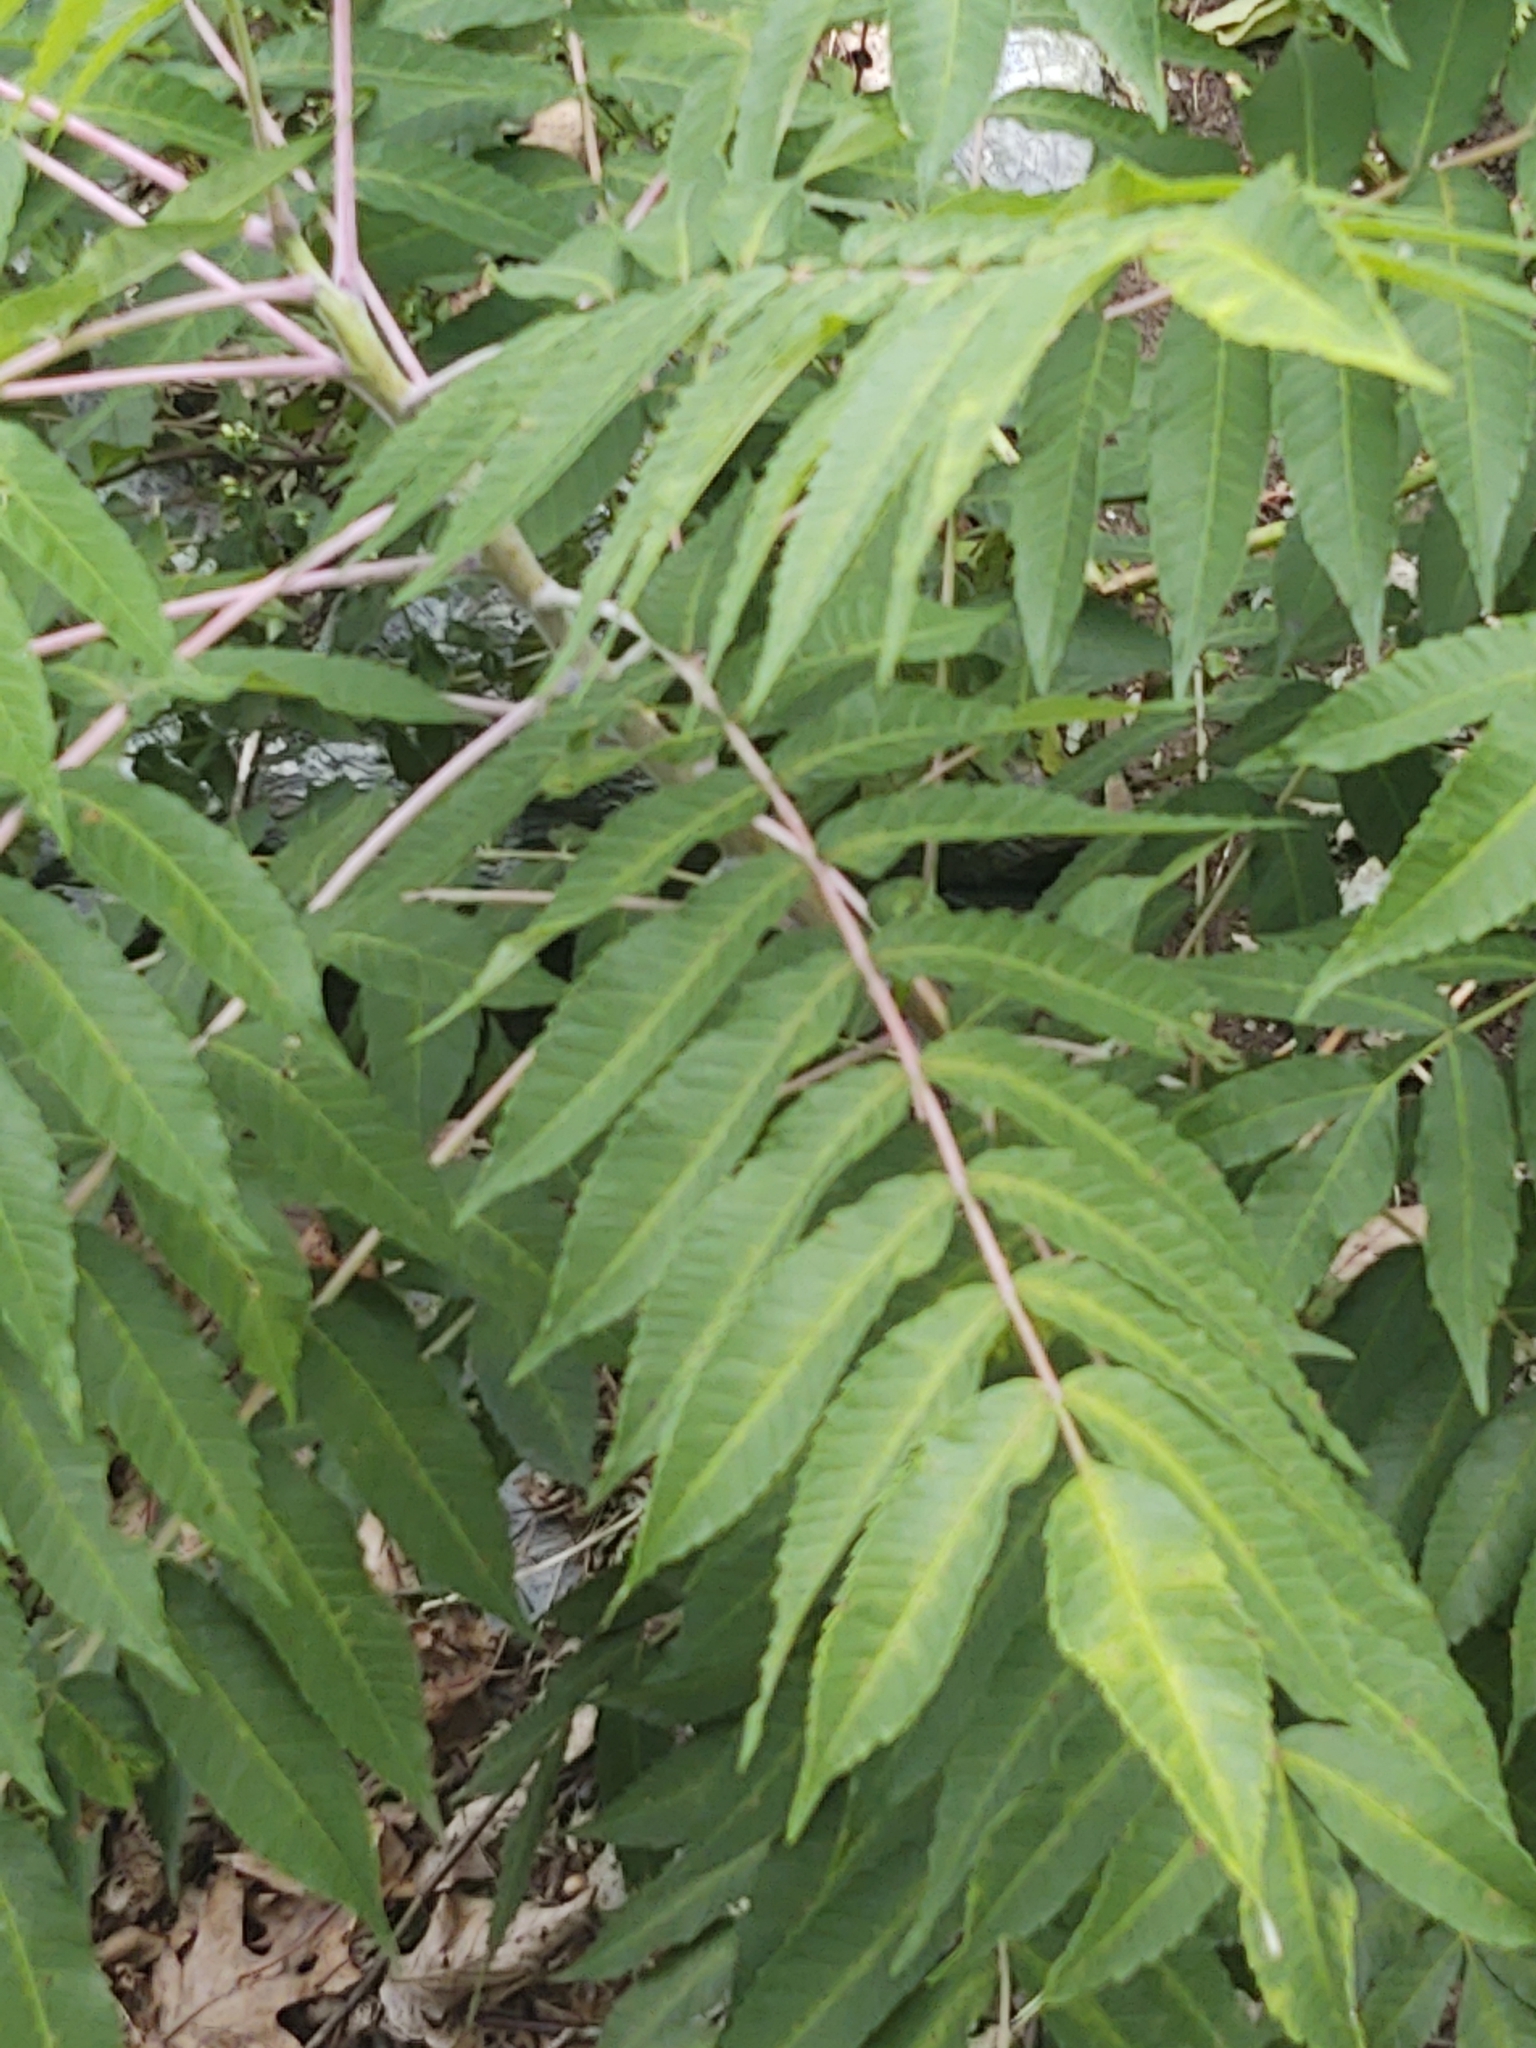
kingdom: Plantae
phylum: Tracheophyta
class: Magnoliopsida
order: Sapindales
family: Anacardiaceae
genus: Rhus
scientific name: Rhus glabra
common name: Scarlet sumac
